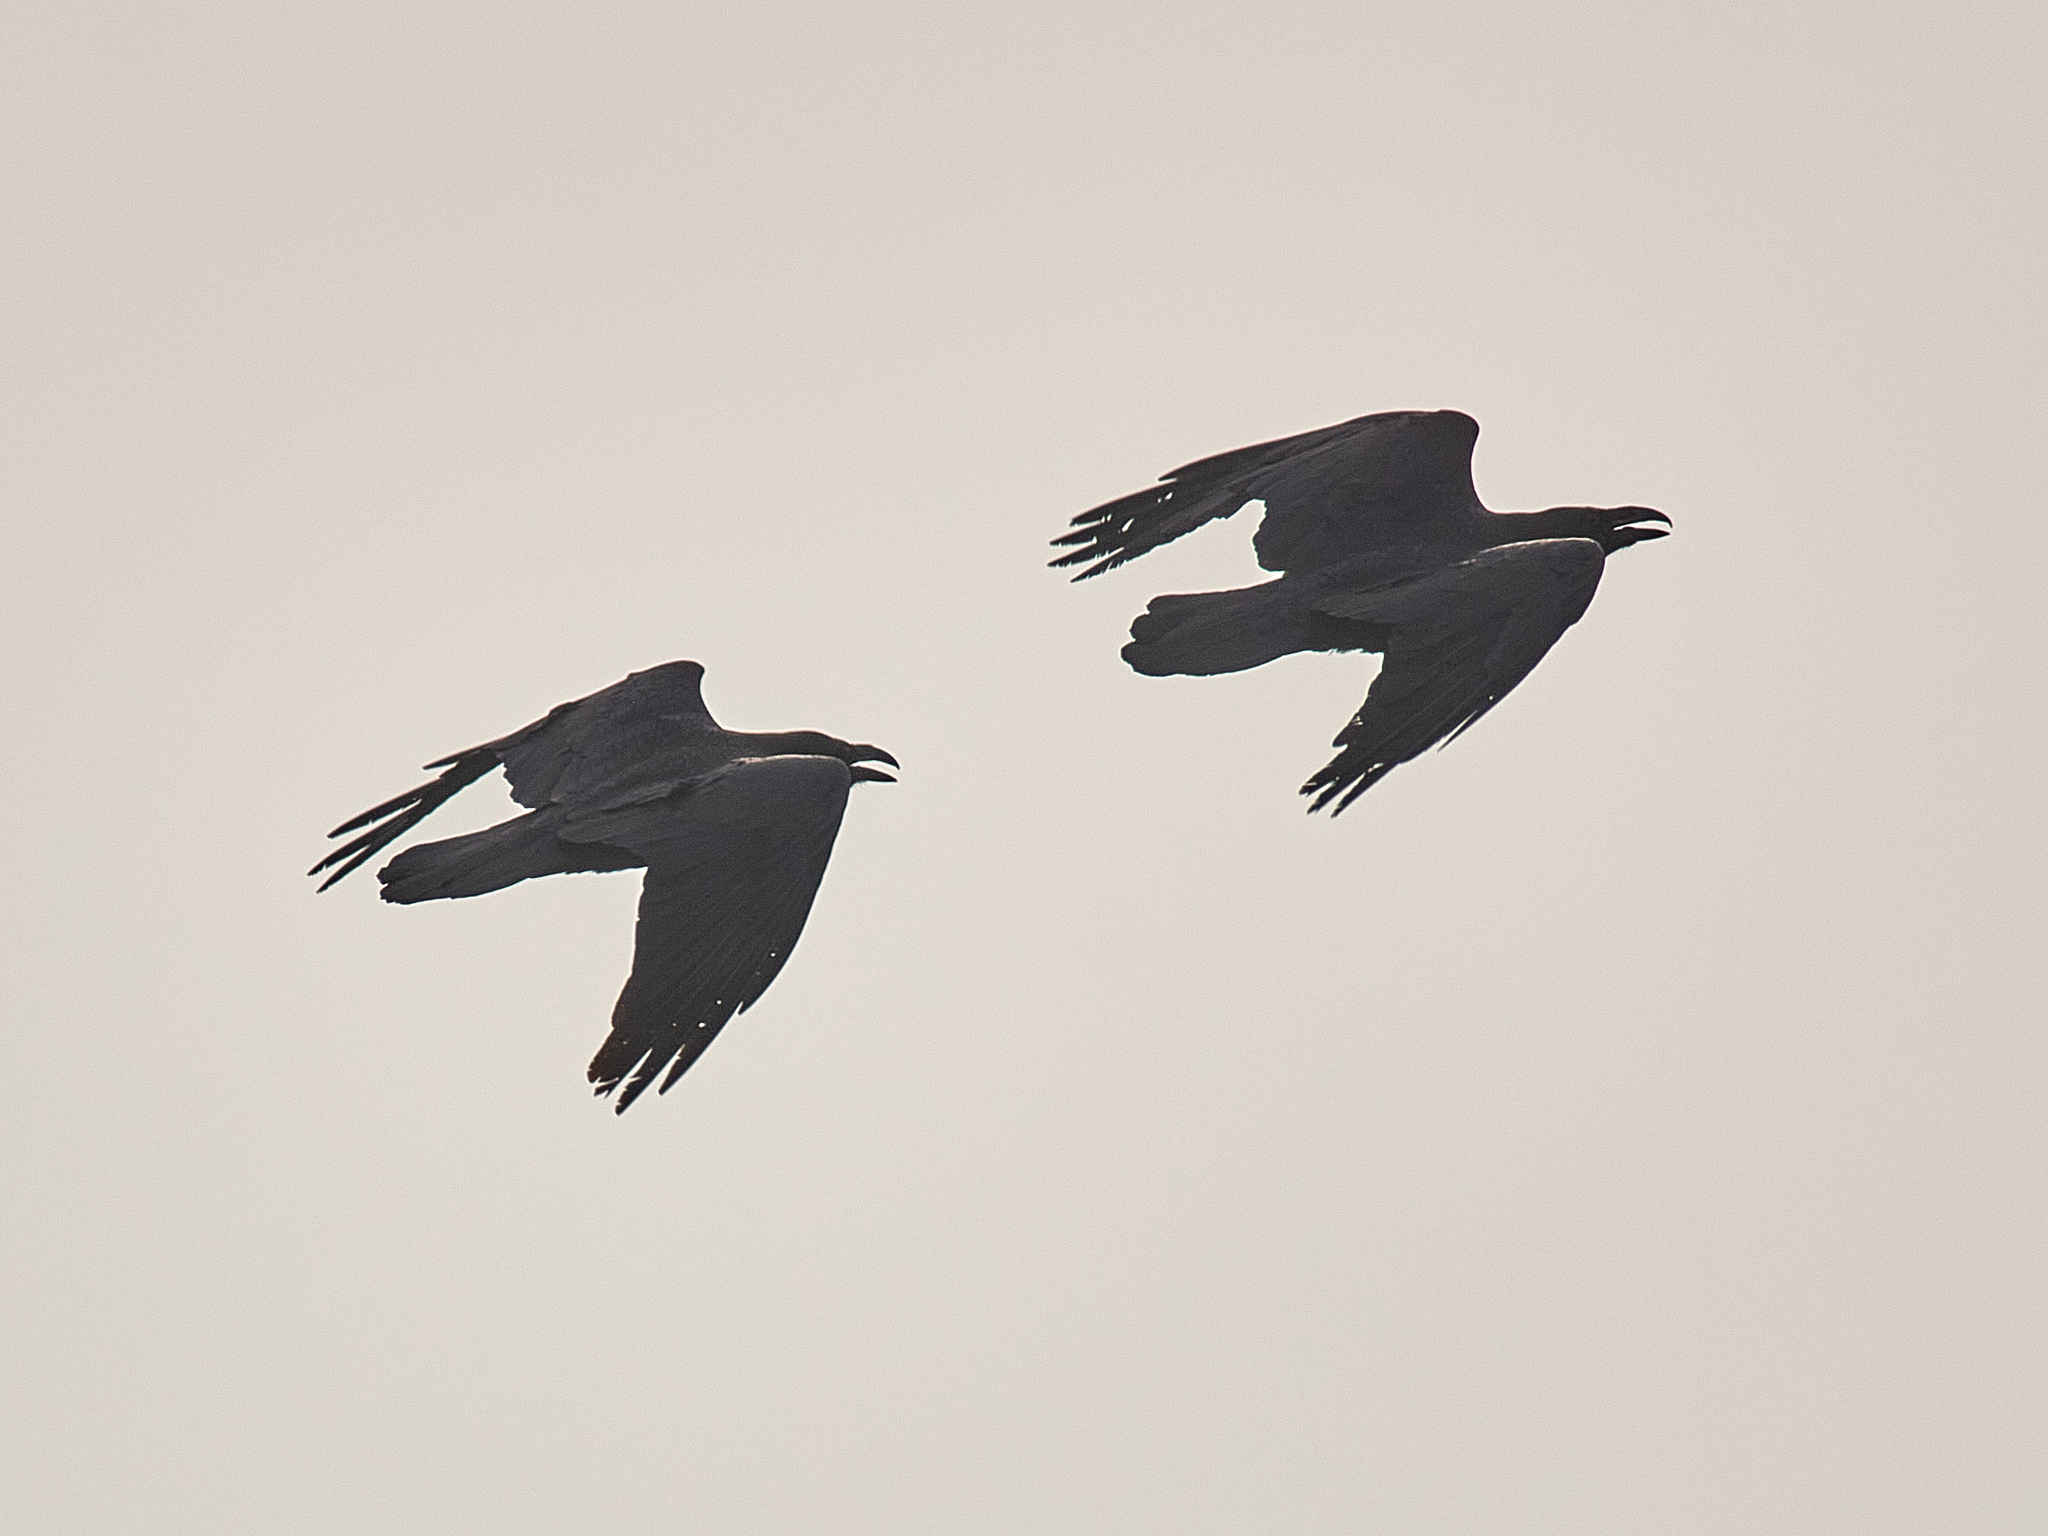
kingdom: Animalia
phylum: Chordata
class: Aves
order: Passeriformes
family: Corvidae
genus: Corvus
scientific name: Corvus corax
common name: Common raven
